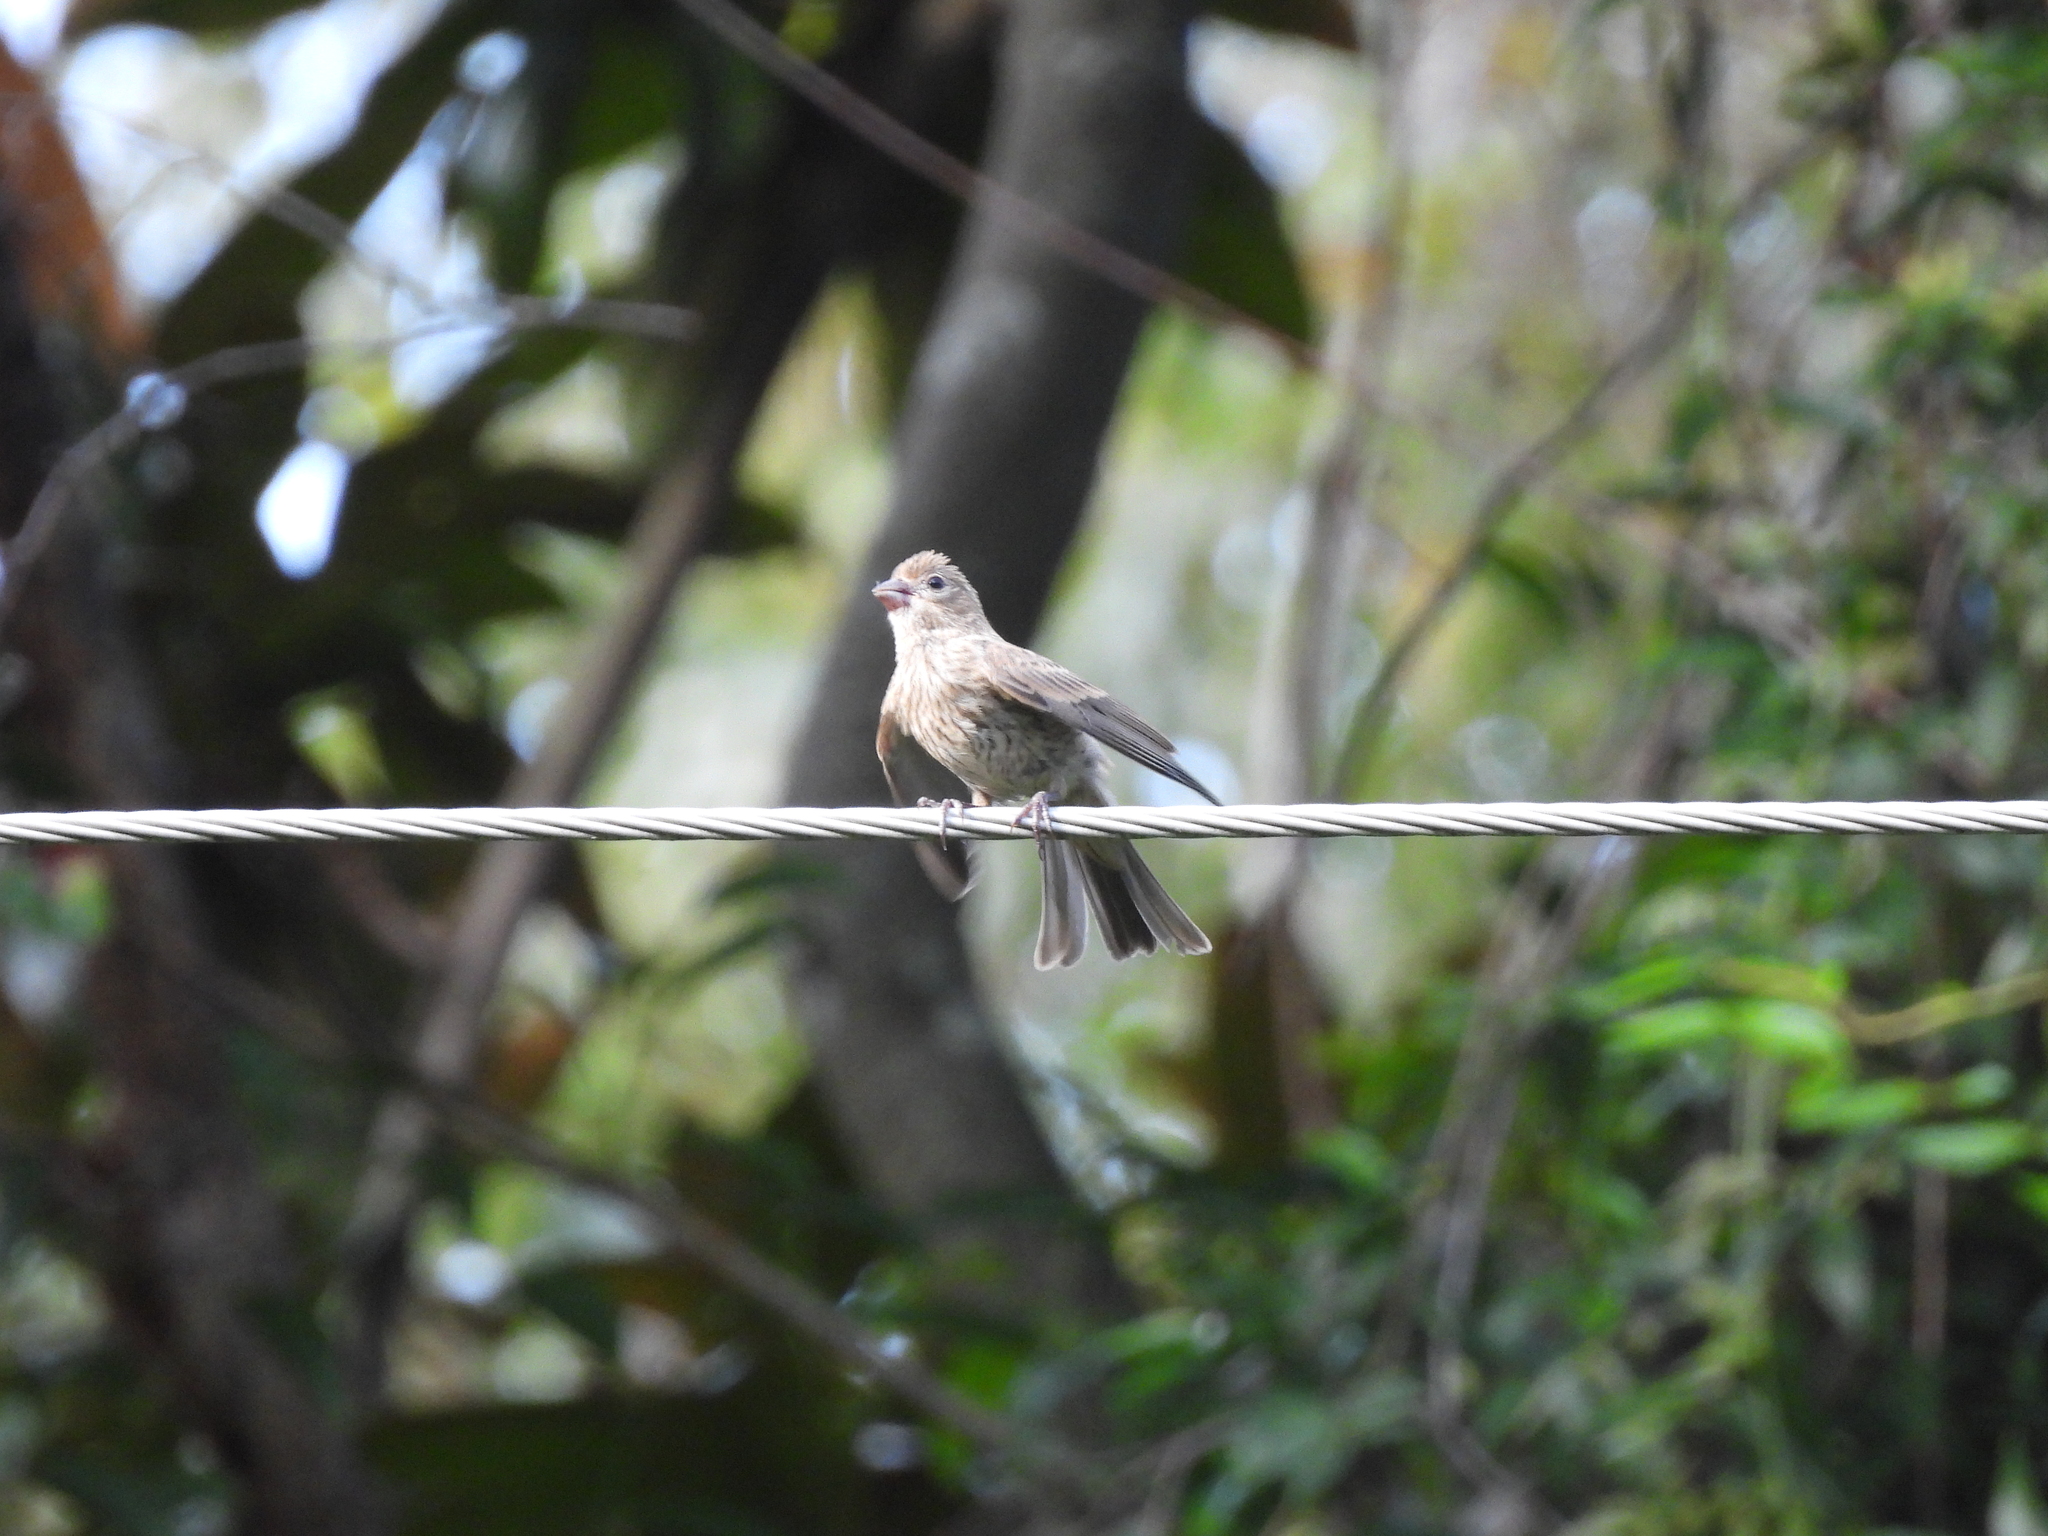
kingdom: Animalia
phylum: Chordata
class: Aves
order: Passeriformes
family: Fringillidae
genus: Haemorhous
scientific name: Haemorhous mexicanus
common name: House finch
